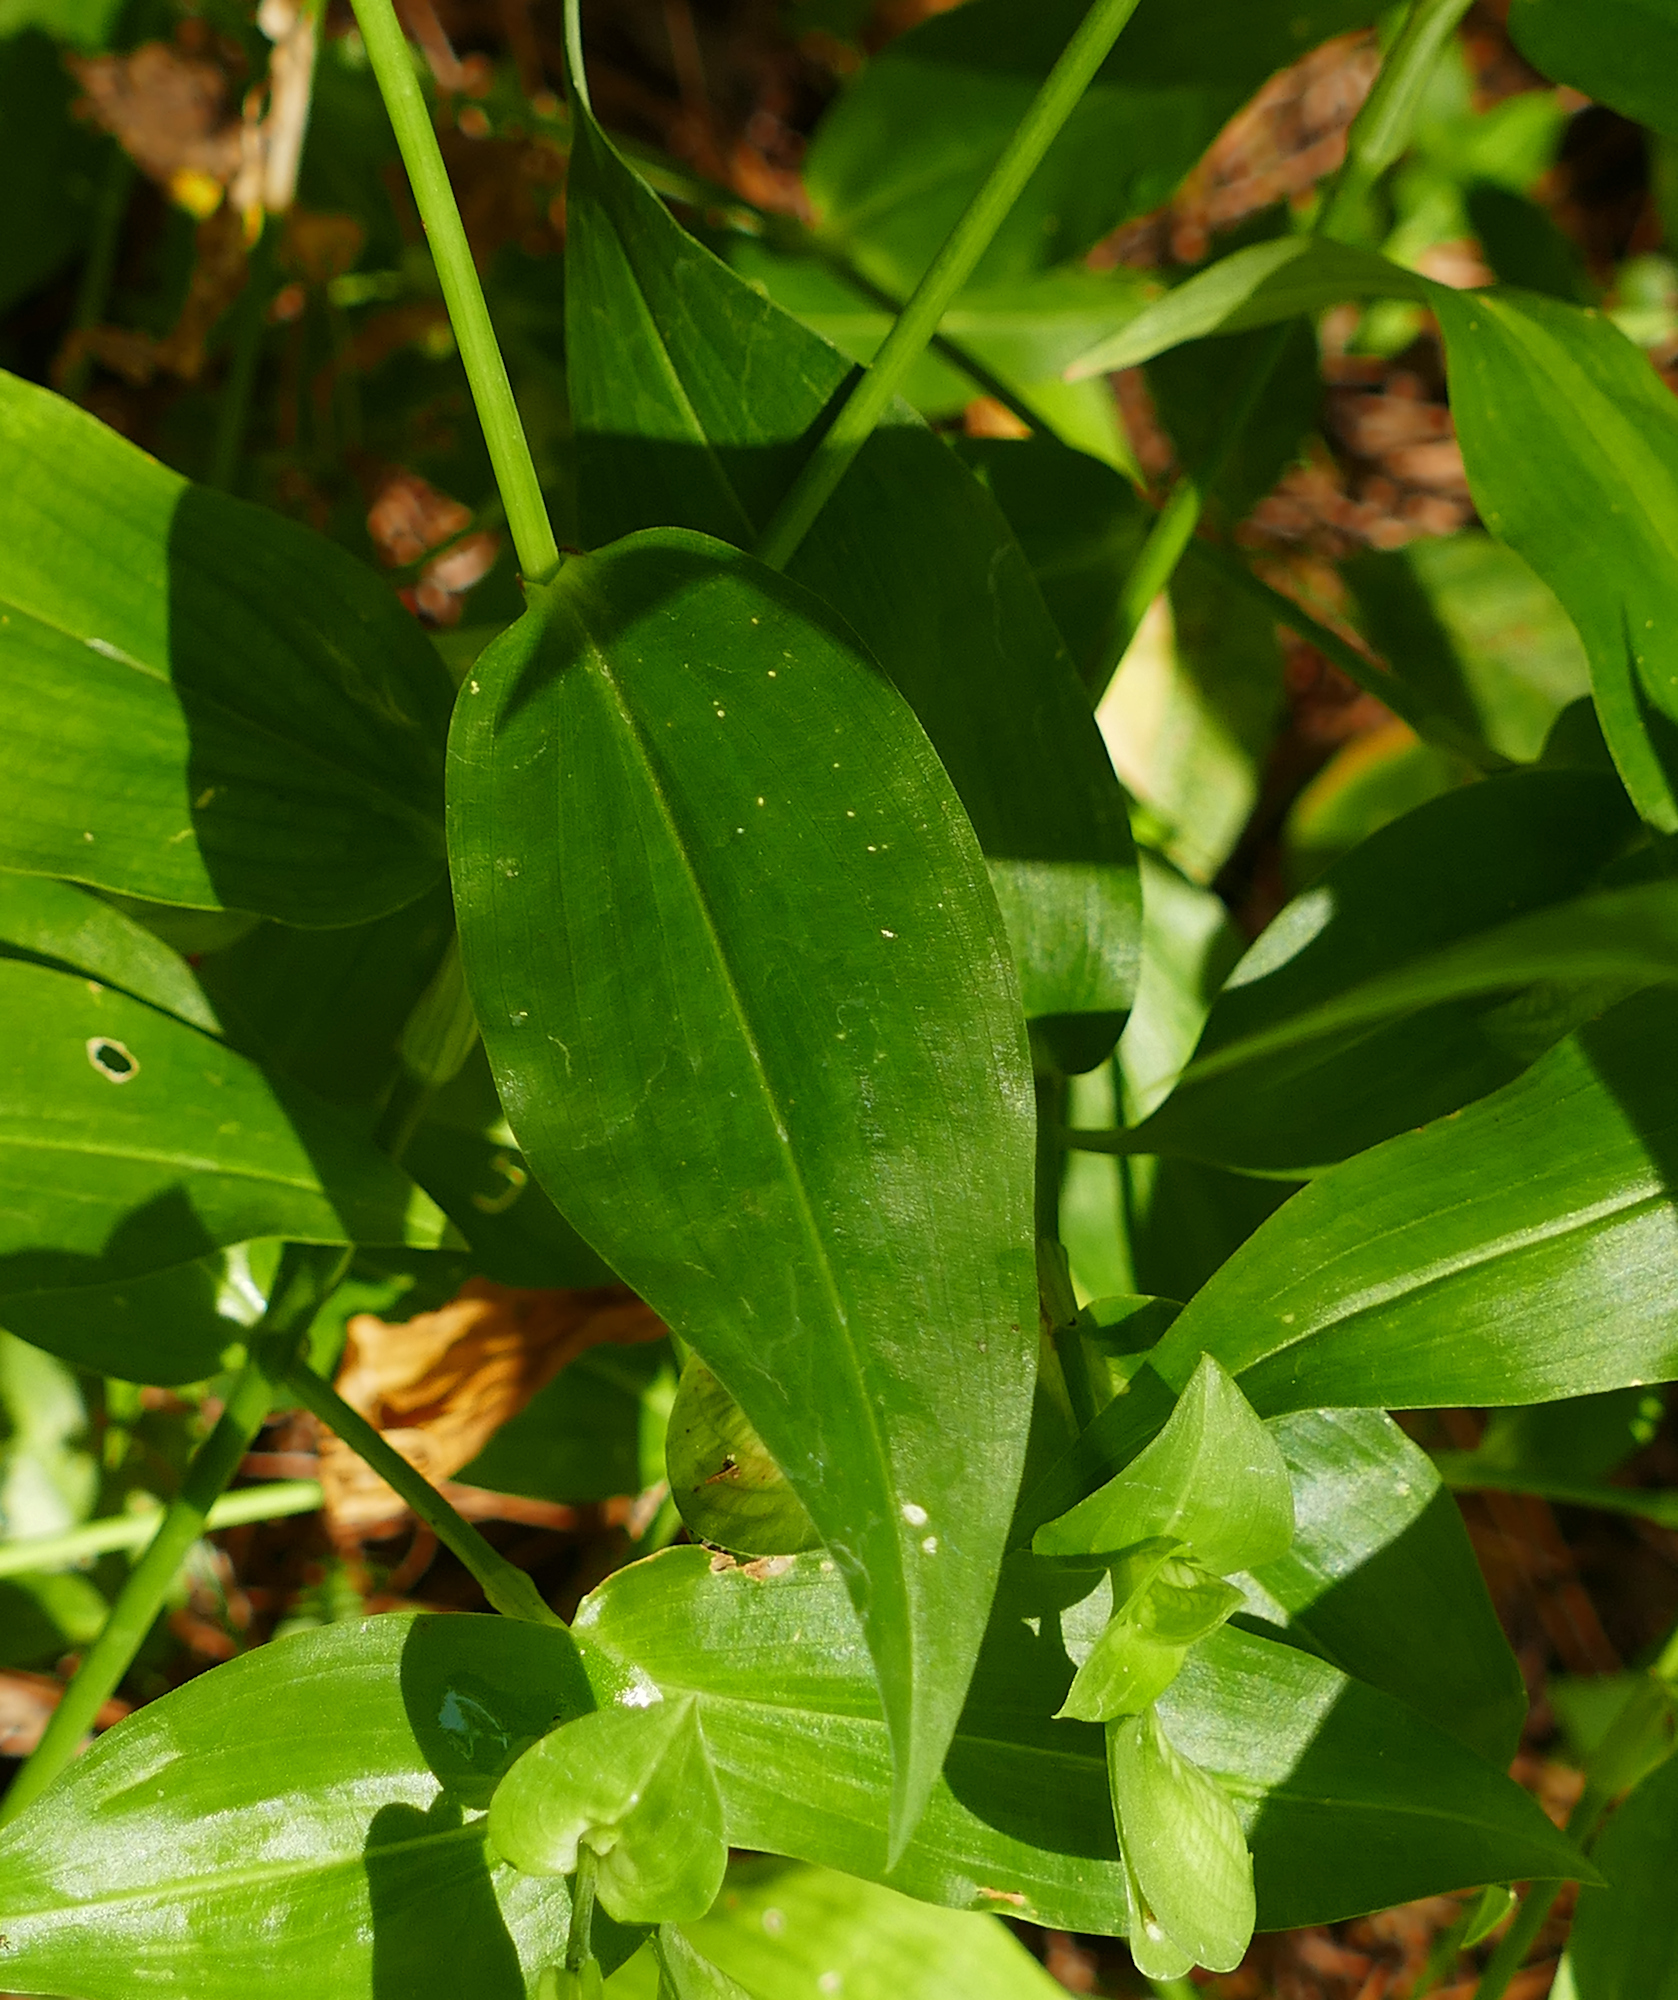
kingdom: Plantae
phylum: Tracheophyta
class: Liliopsida
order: Commelinales
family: Commelinaceae
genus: Commelina
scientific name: Commelina communis
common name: Asiatic dayflower
